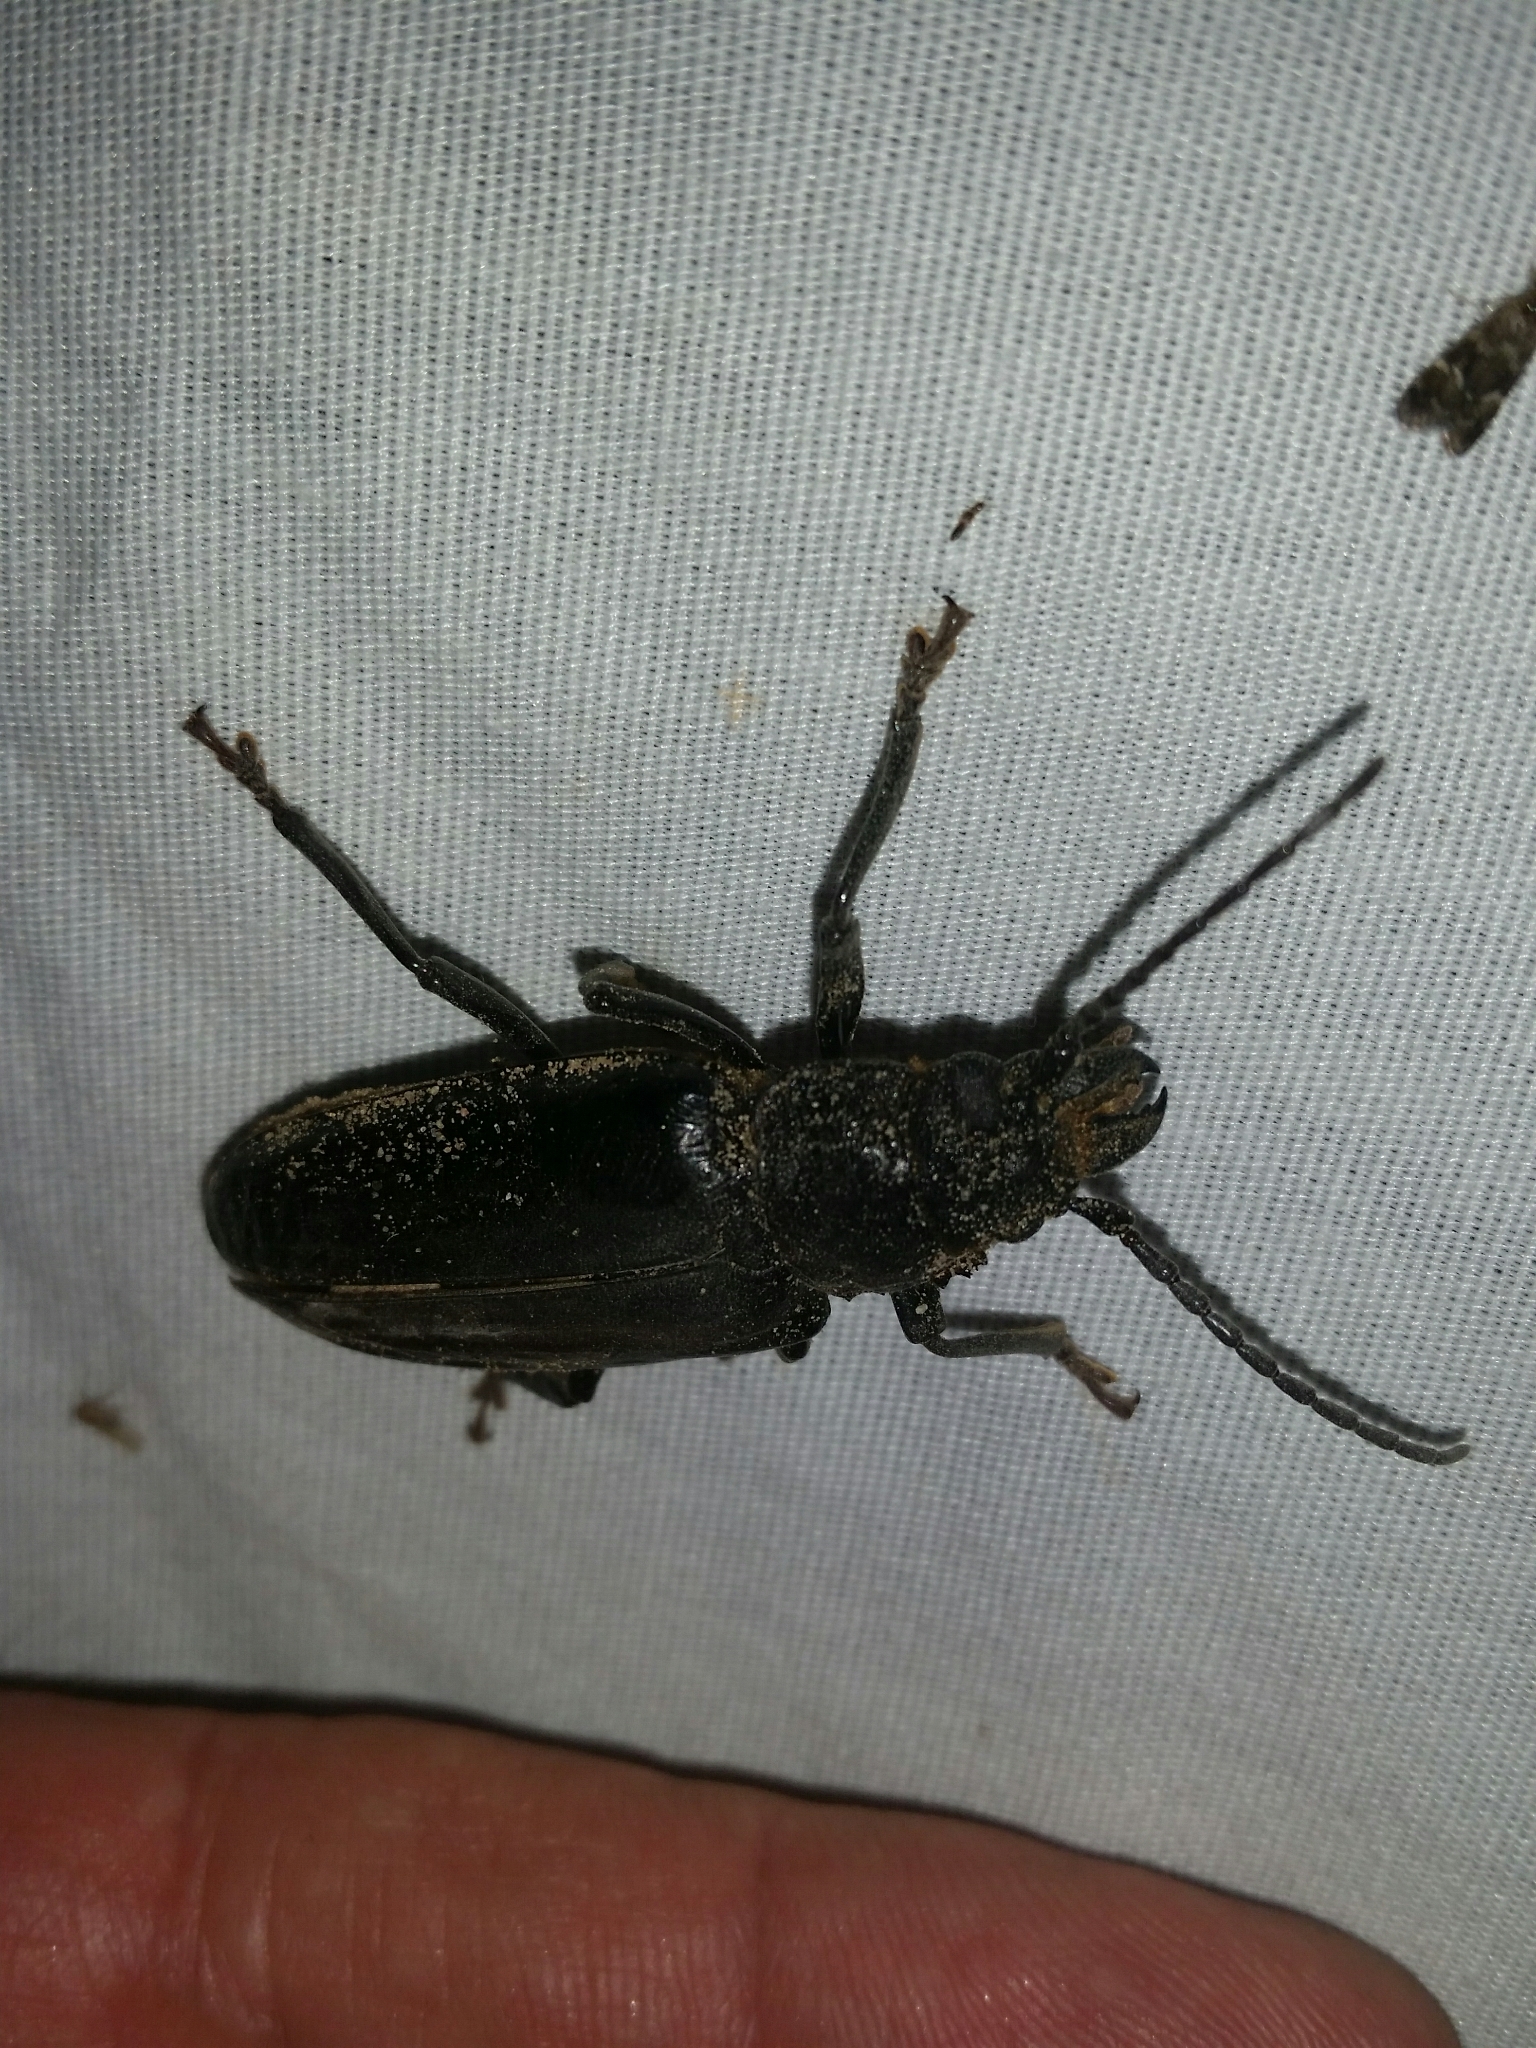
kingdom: Animalia
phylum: Arthropoda
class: Insecta
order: Coleoptera
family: Cerambycidae
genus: Nothopleurus
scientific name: Nothopleurus
